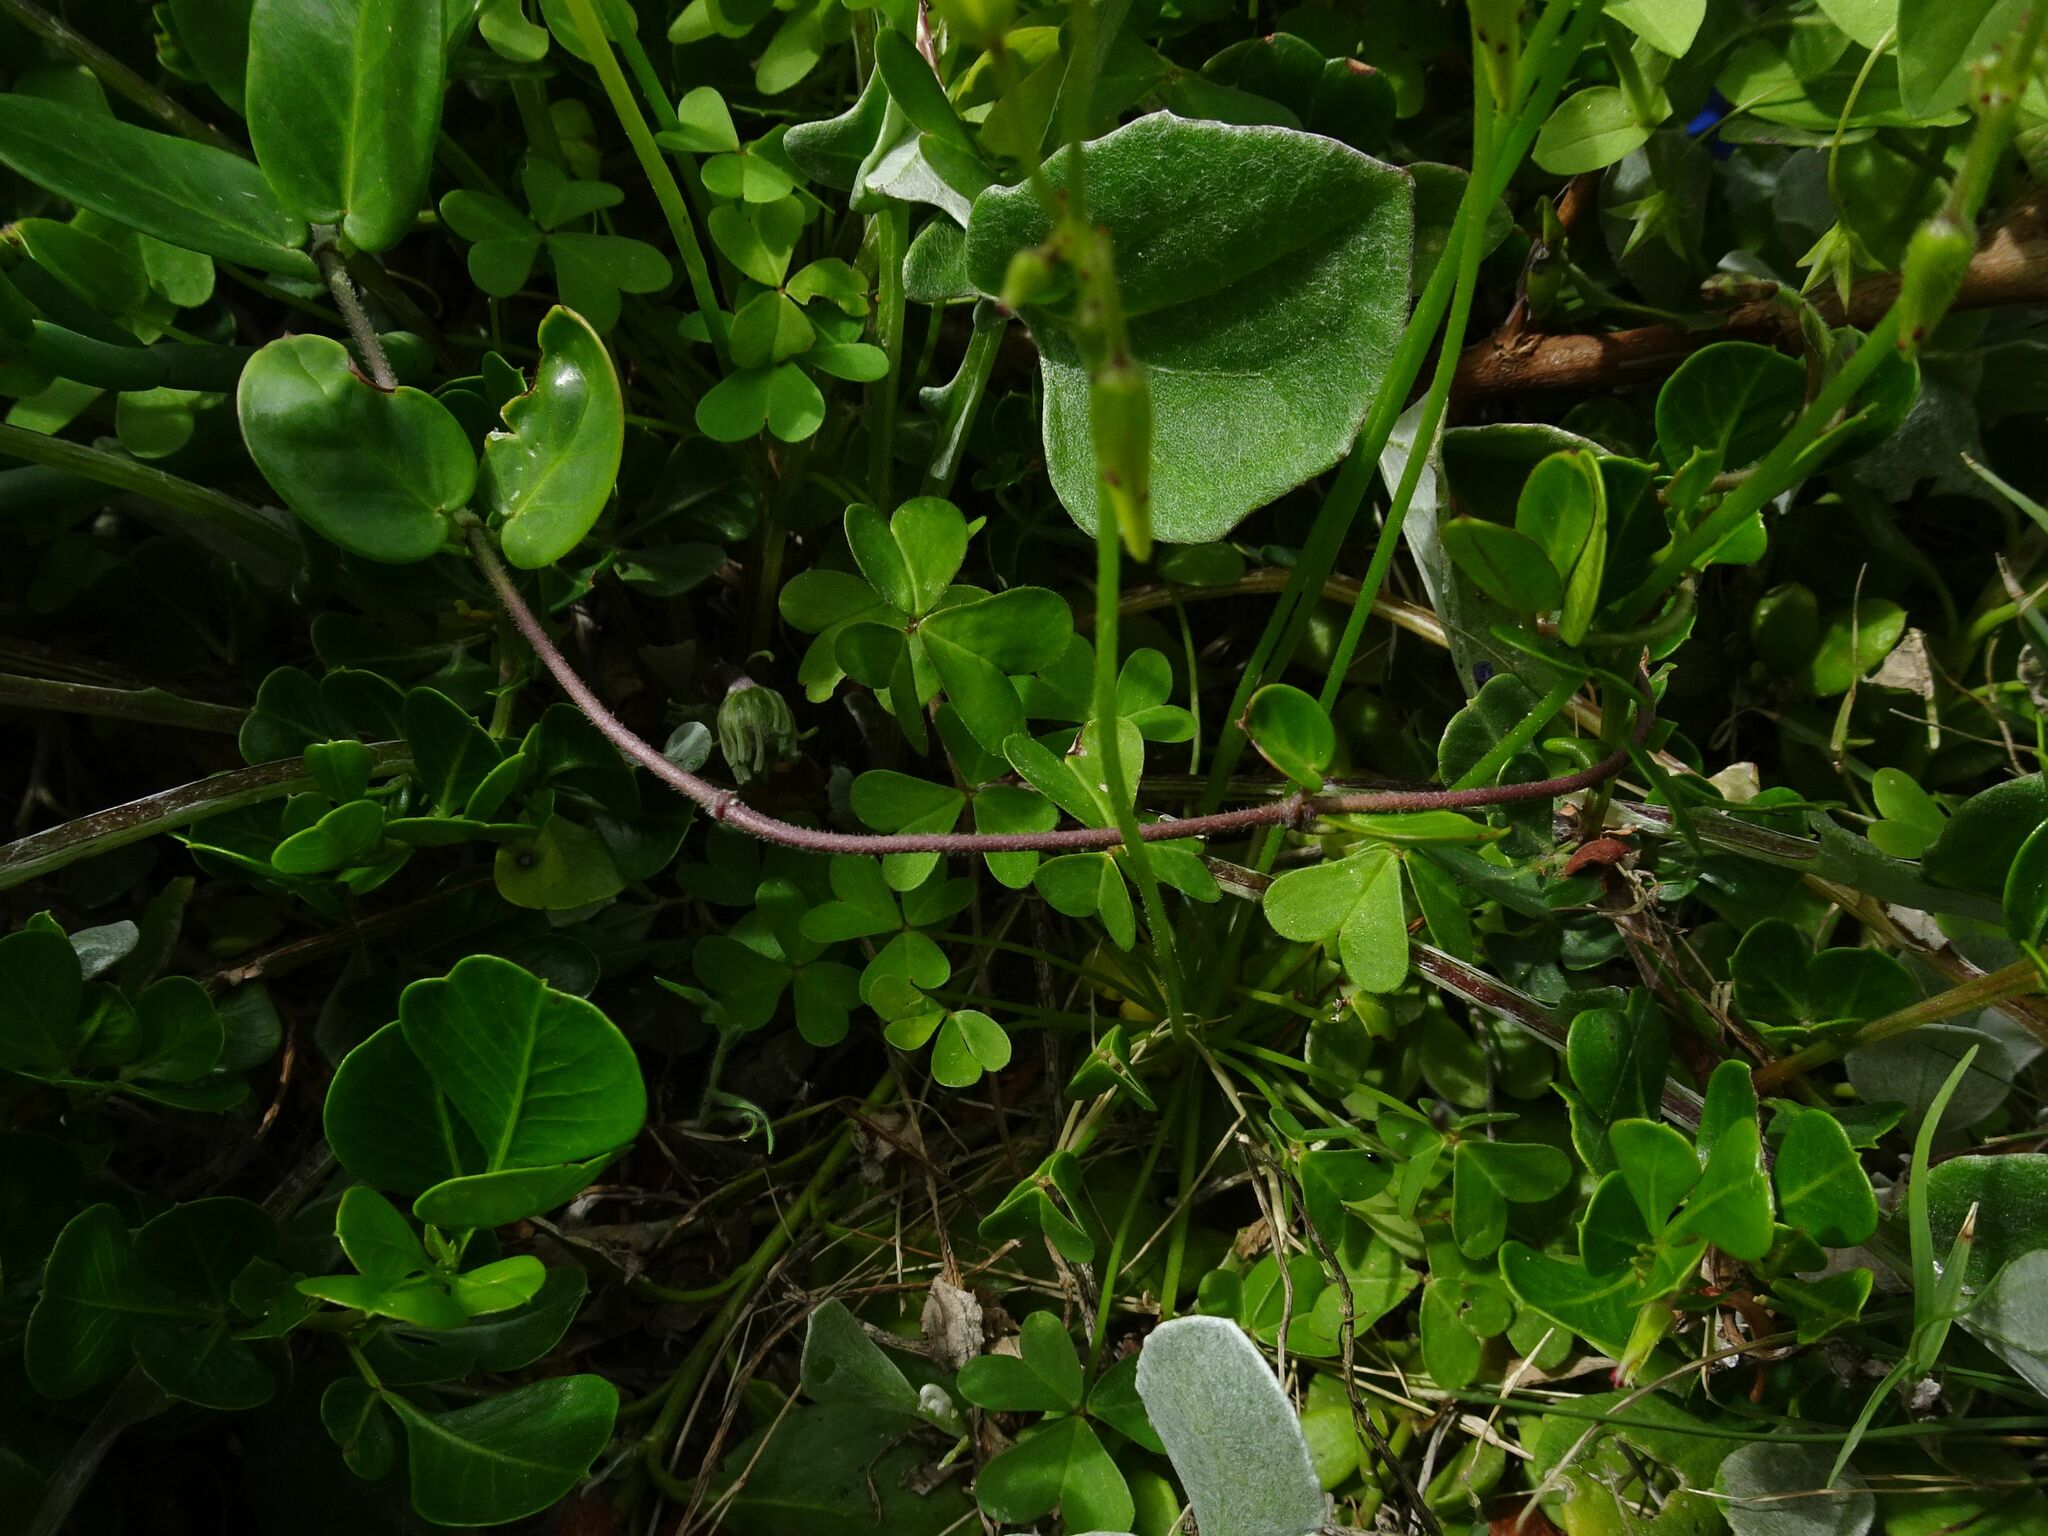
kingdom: Plantae
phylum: Tracheophyta
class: Magnoliopsida
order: Oxalidales
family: Oxalidaceae
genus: Oxalis
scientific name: Oxalis pes-caprae
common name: Bermuda-buttercup
